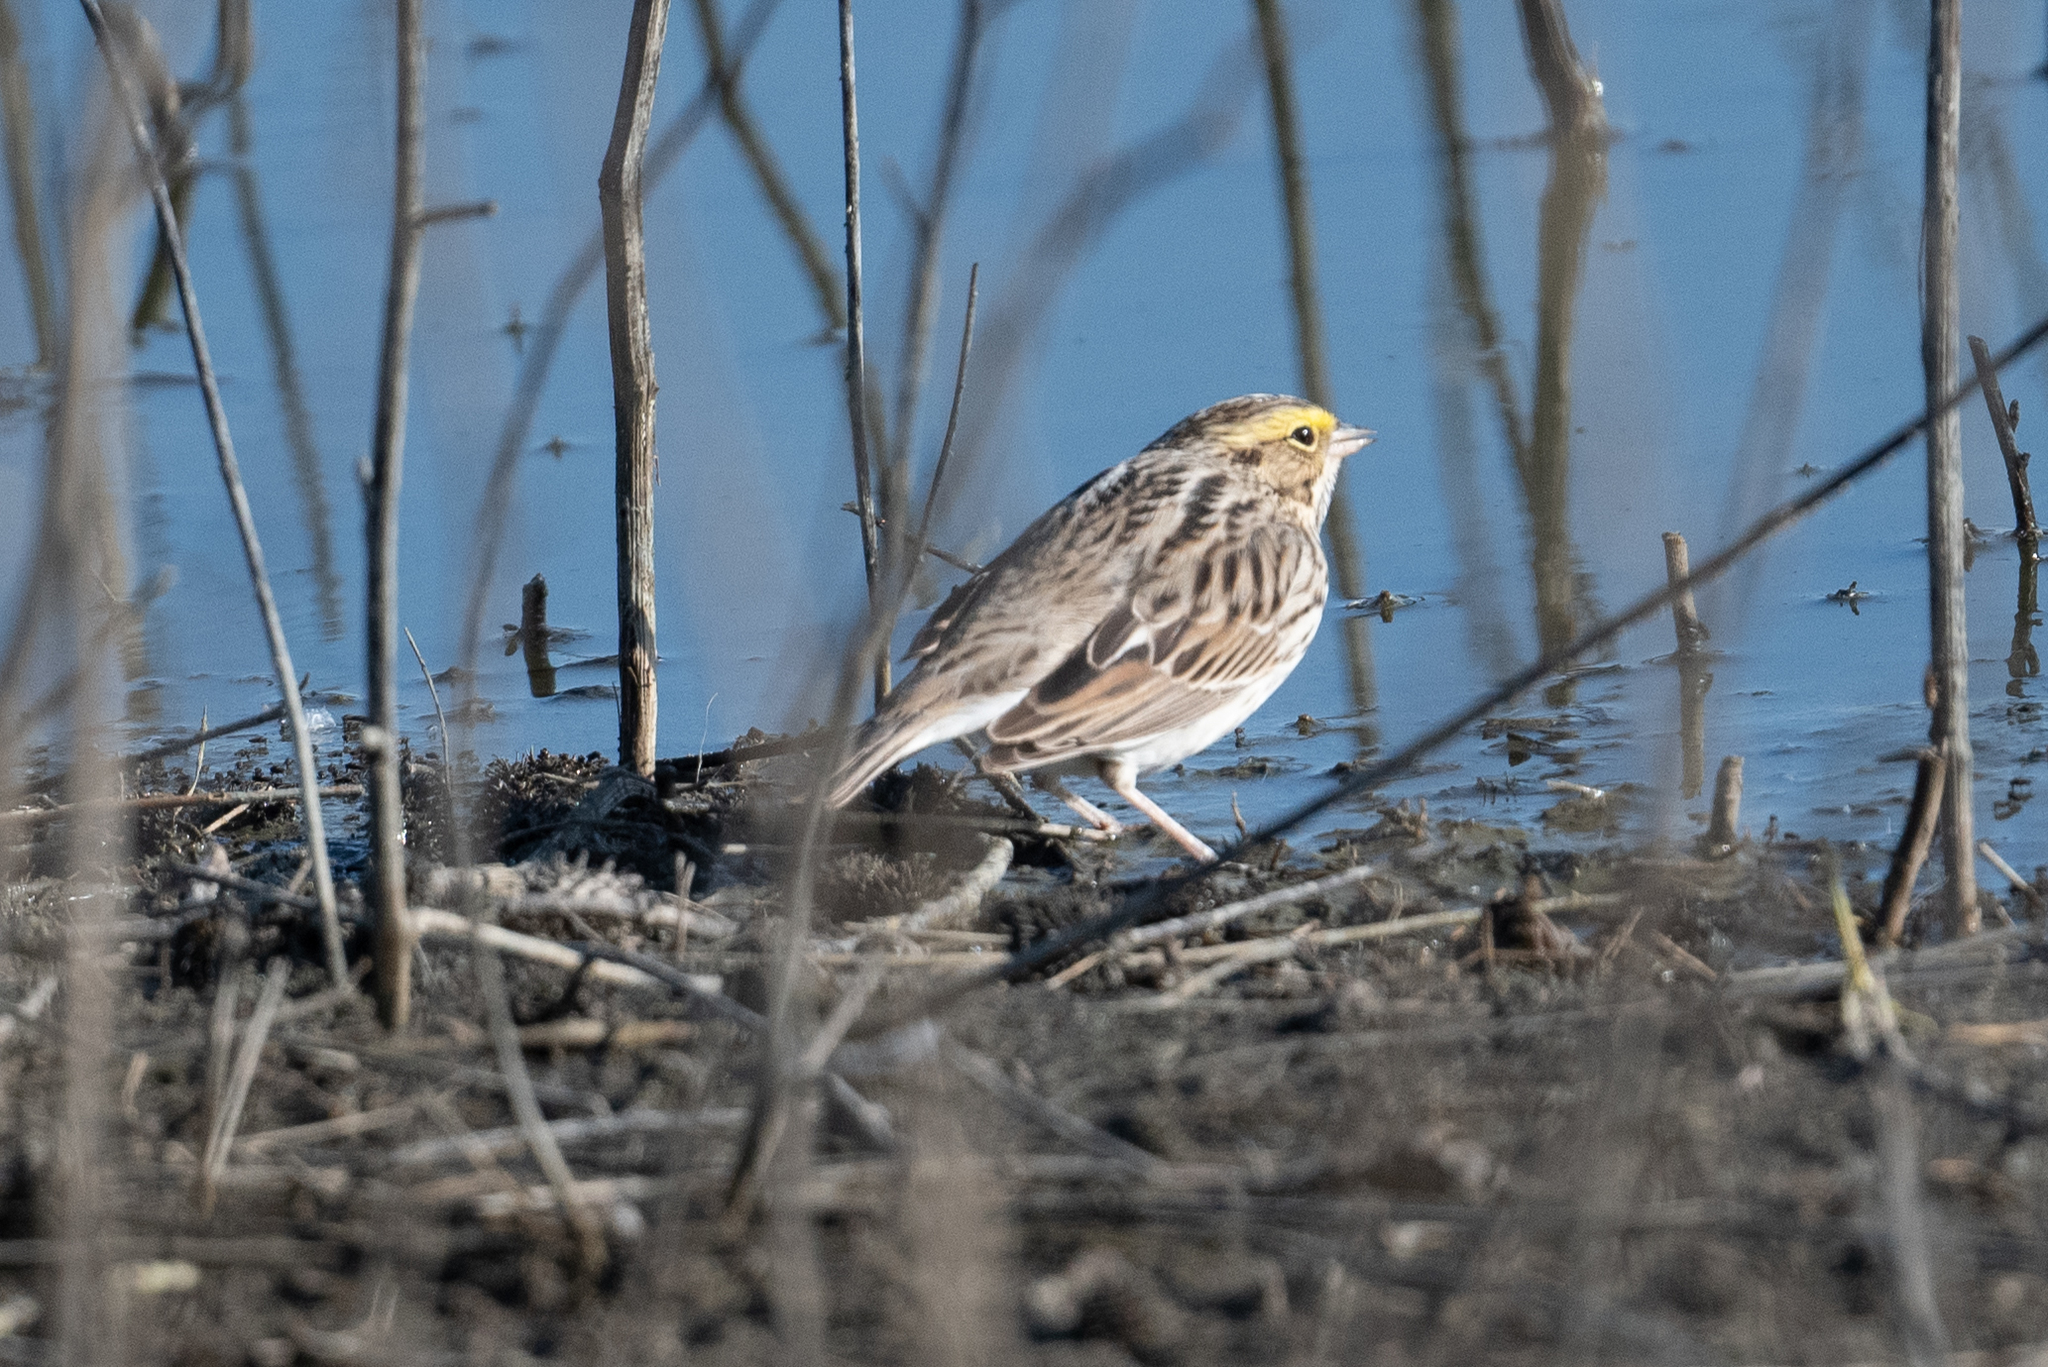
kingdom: Animalia
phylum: Chordata
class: Aves
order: Passeriformes
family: Passerellidae
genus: Passerculus
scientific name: Passerculus sandwichensis
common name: Savannah sparrow
